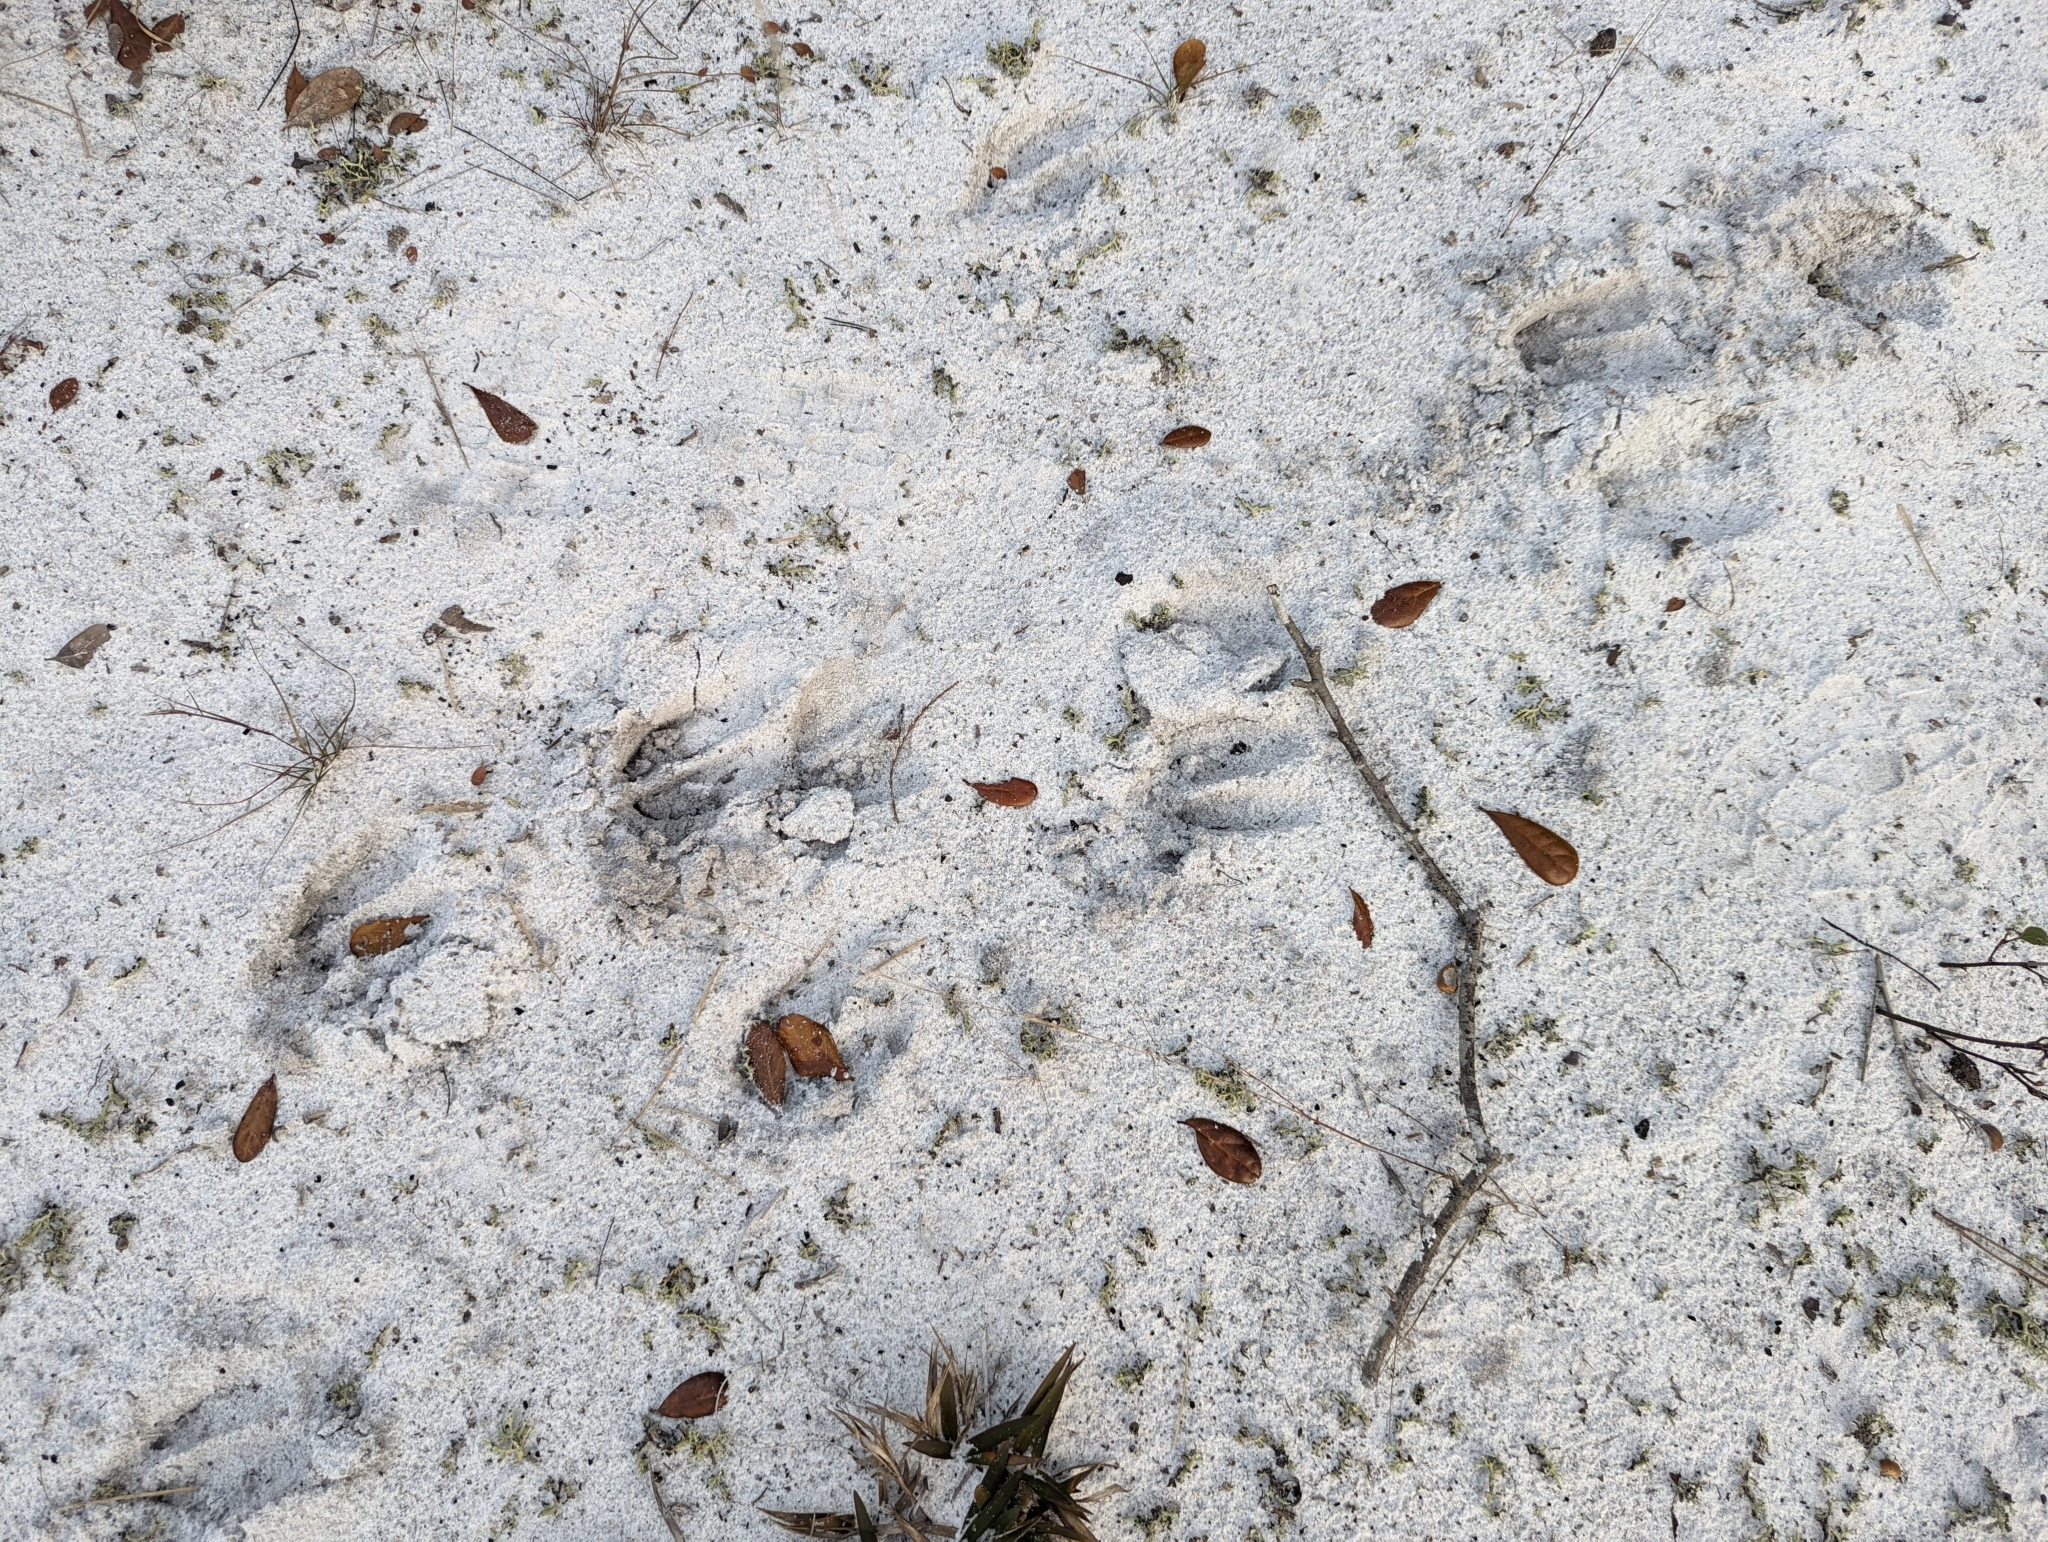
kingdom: Animalia
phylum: Chordata
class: Mammalia
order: Artiodactyla
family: Cervidae
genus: Odocoileus
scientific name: Odocoileus virginianus
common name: White-tailed deer
